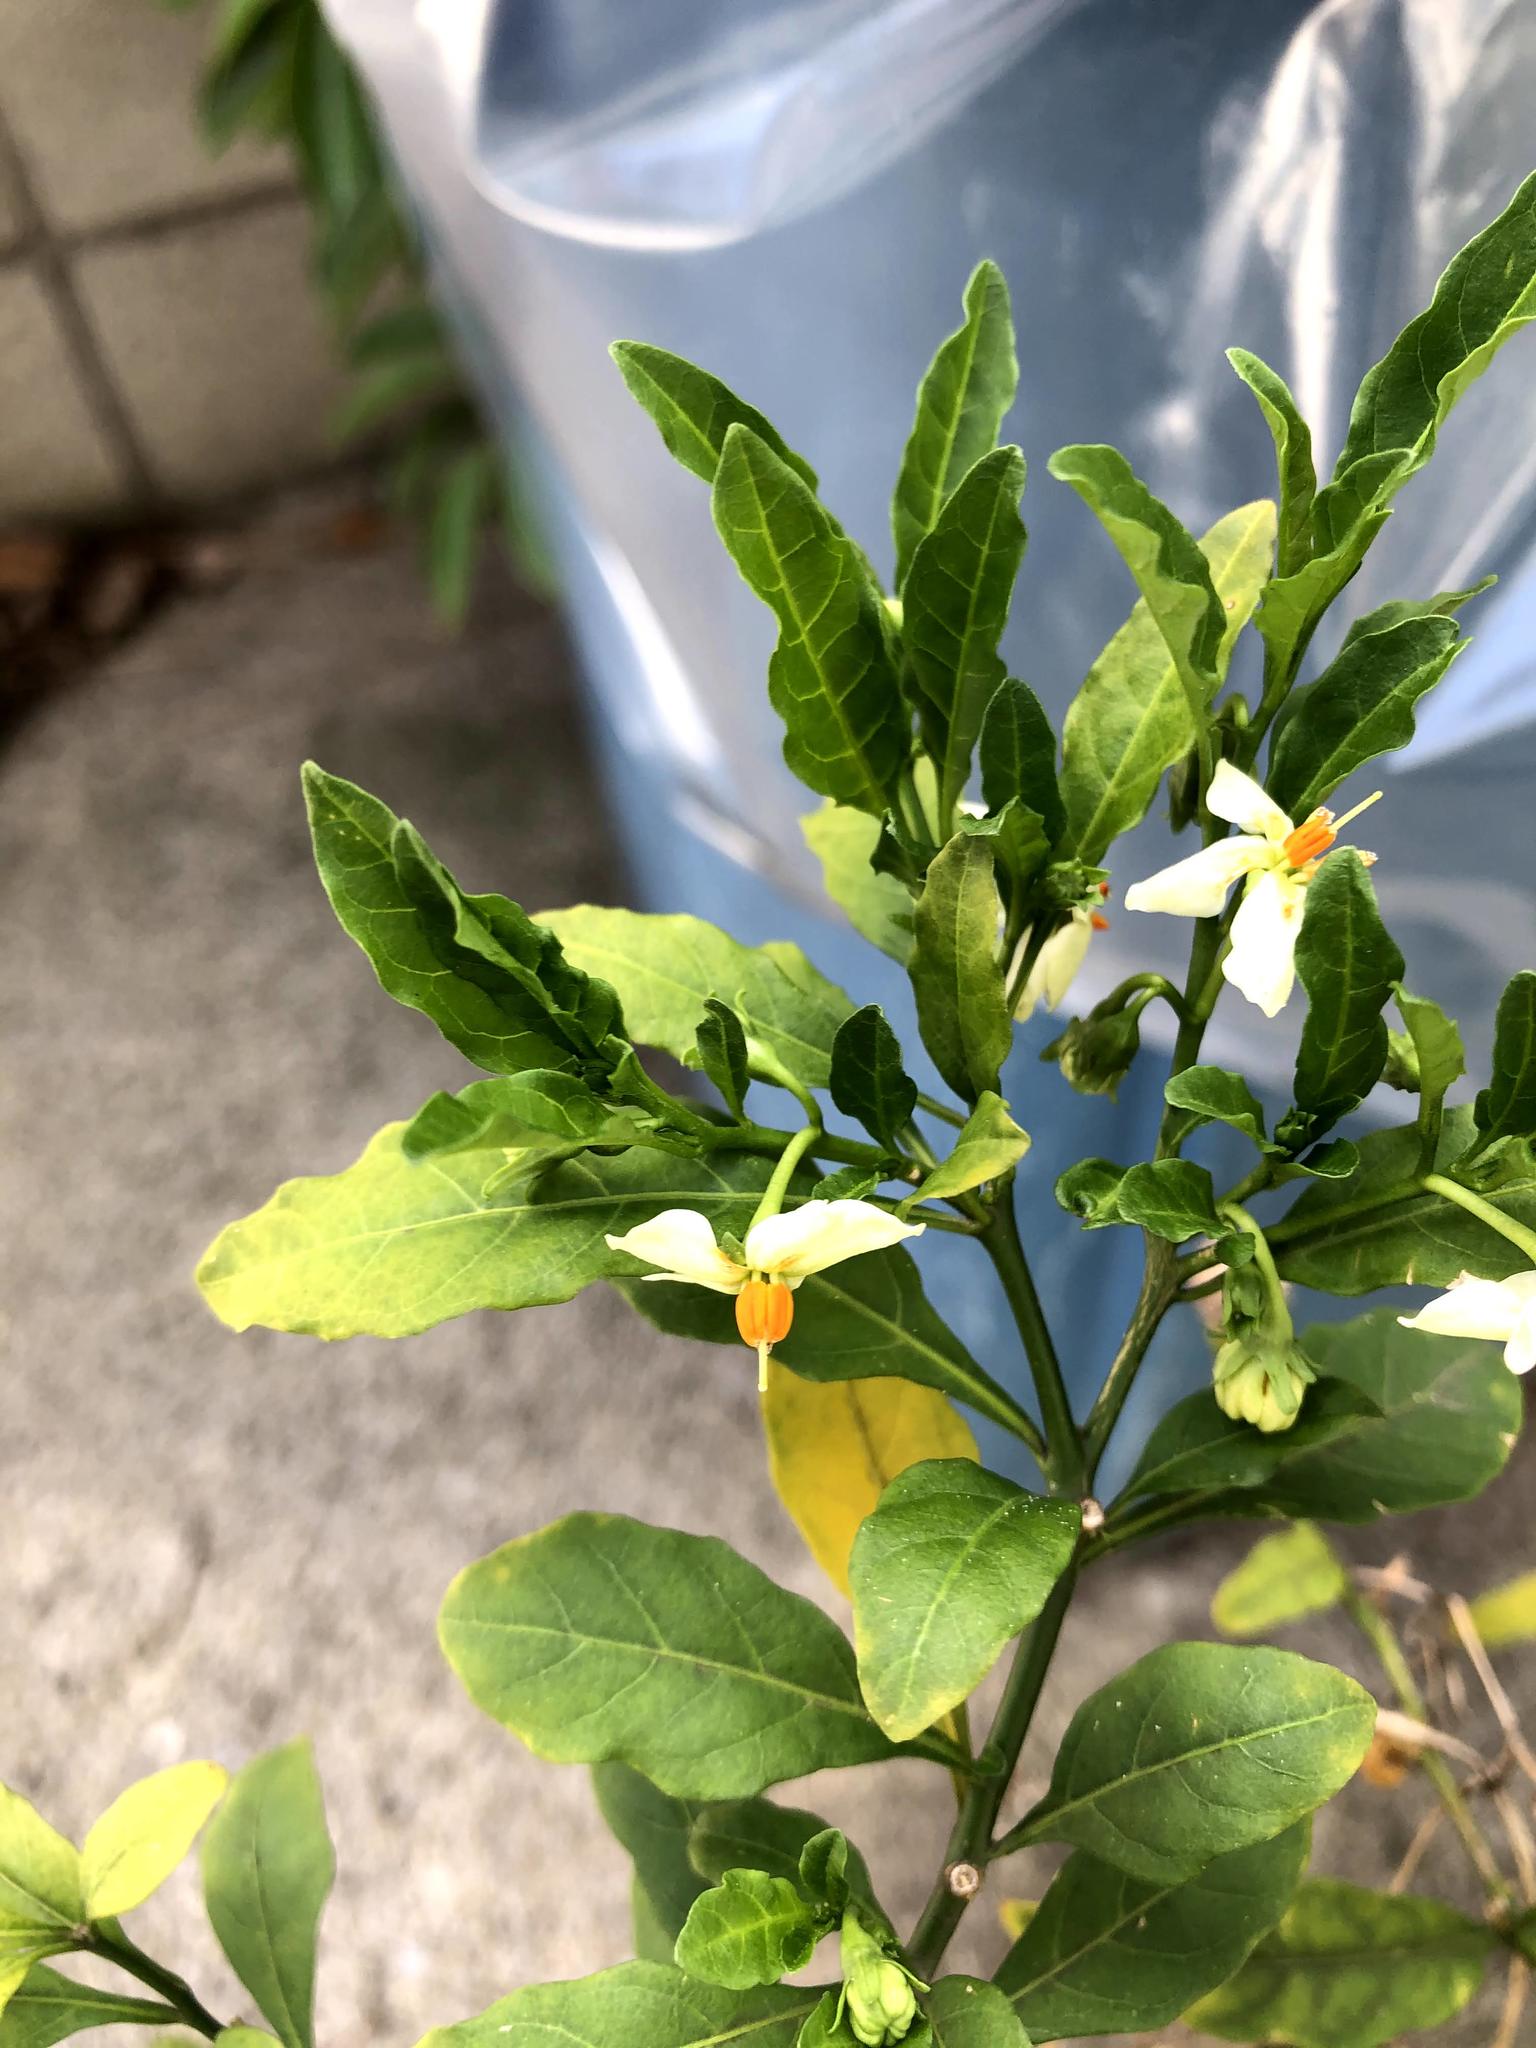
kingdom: Plantae
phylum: Tracheophyta
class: Magnoliopsida
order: Solanales
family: Solanaceae
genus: Solanum
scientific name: Solanum pseudocapsicum
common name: Jerusalem cherry
